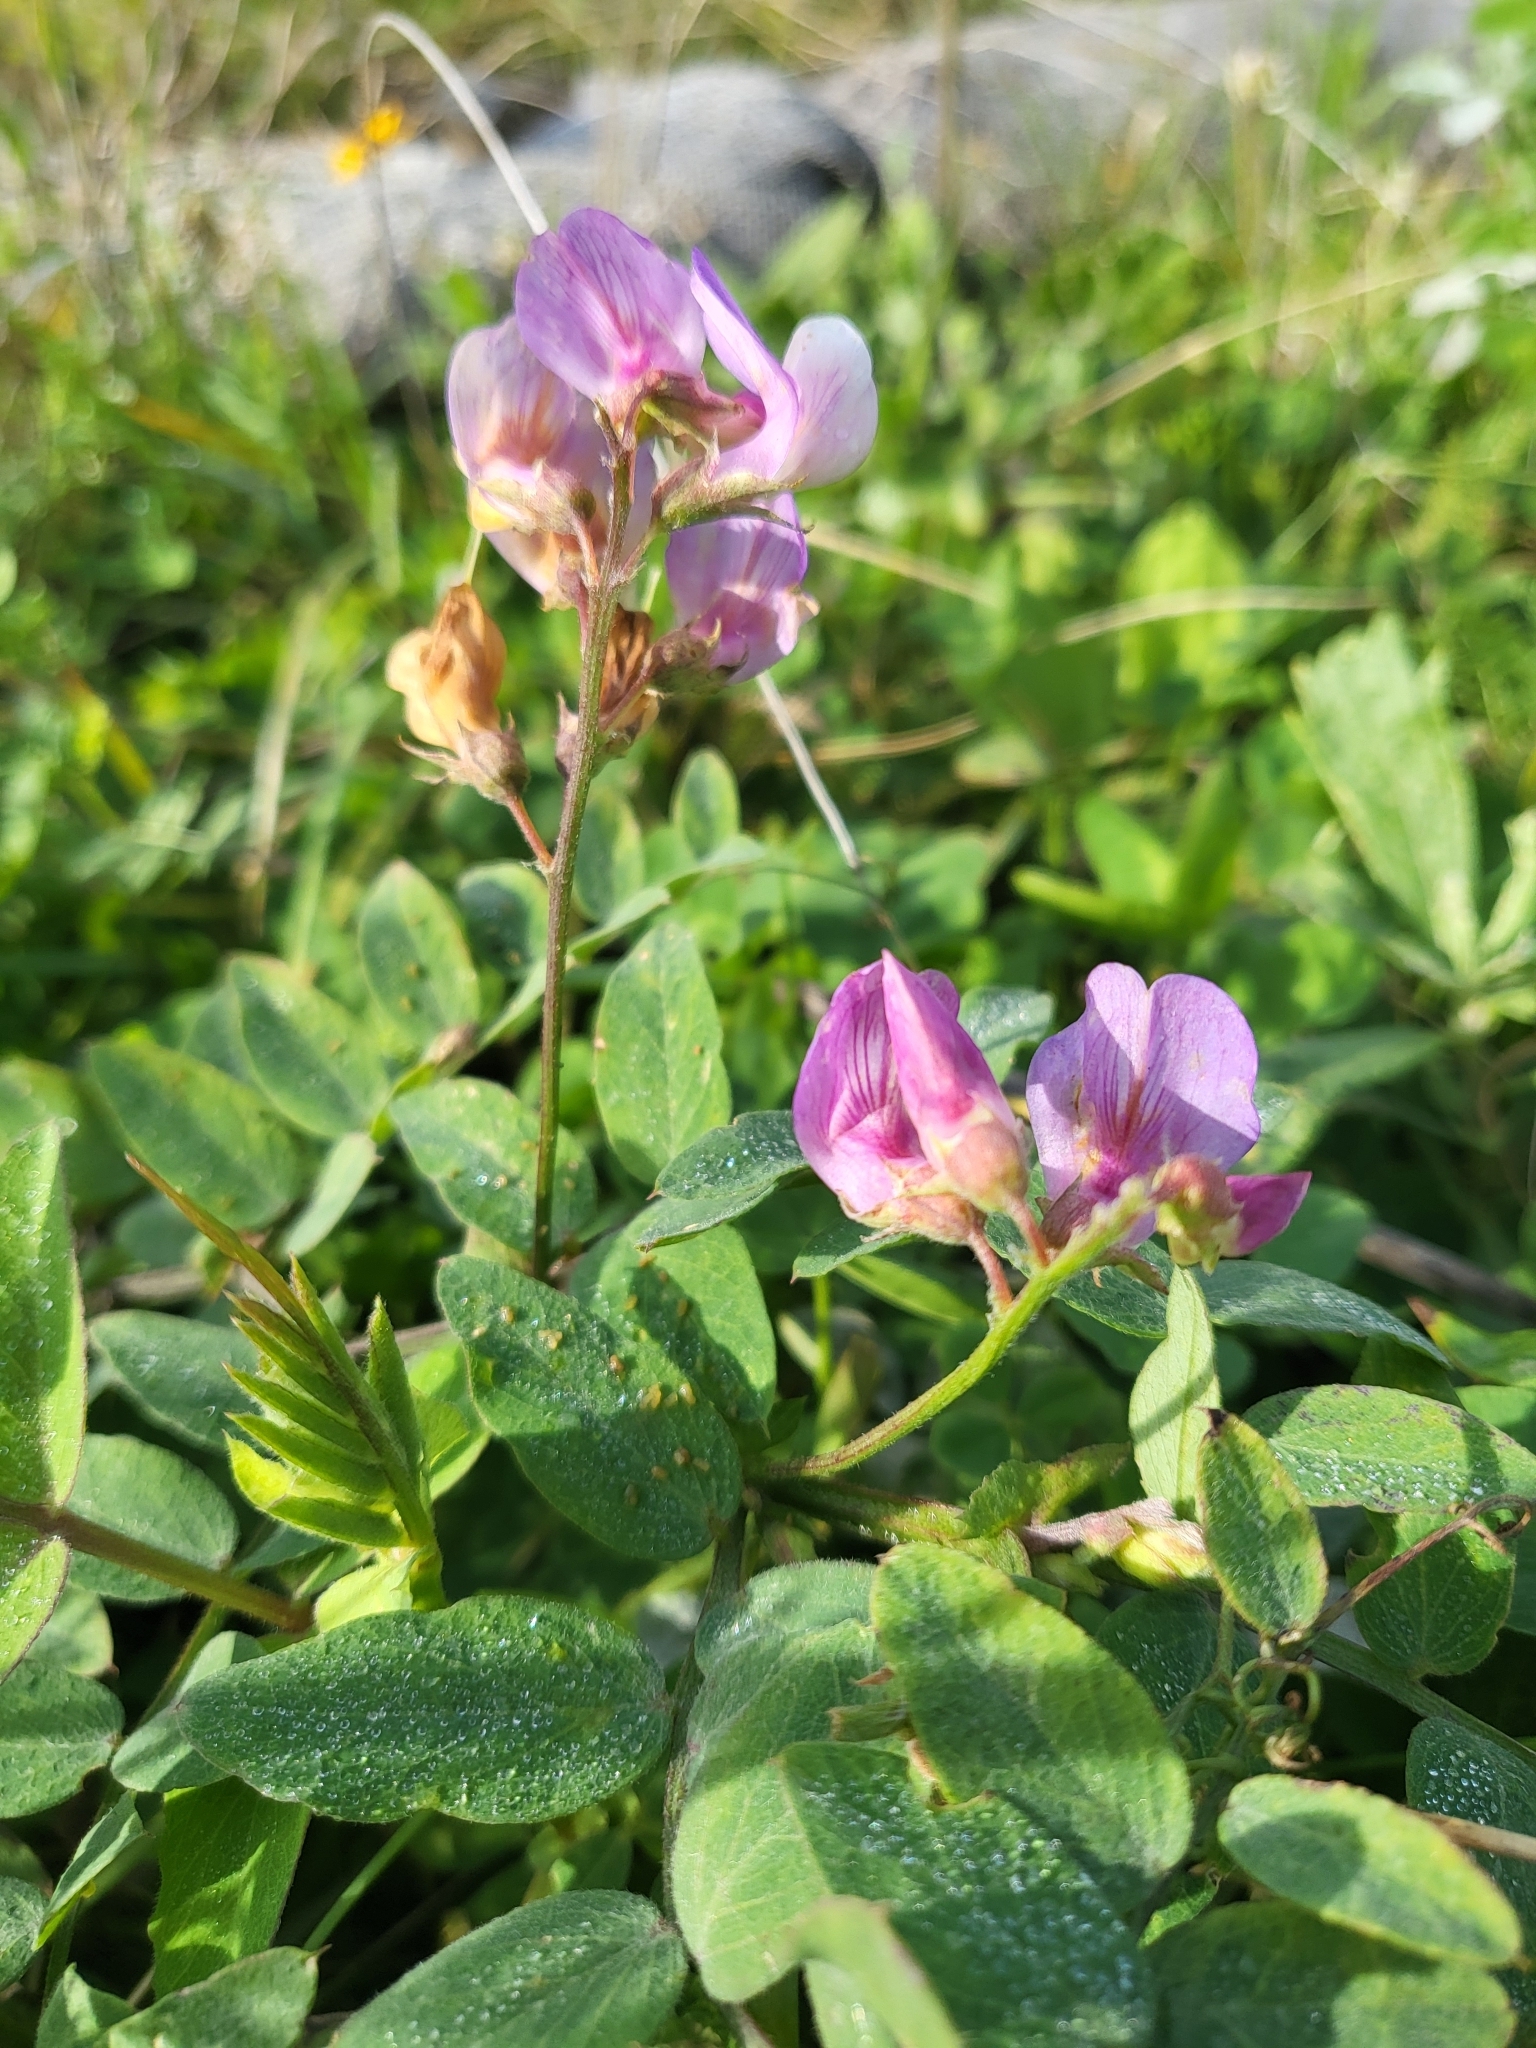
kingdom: Plantae
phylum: Tracheophyta
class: Magnoliopsida
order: Fabales
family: Fabaceae
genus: Lathyrus
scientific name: Lathyrus vestitus
